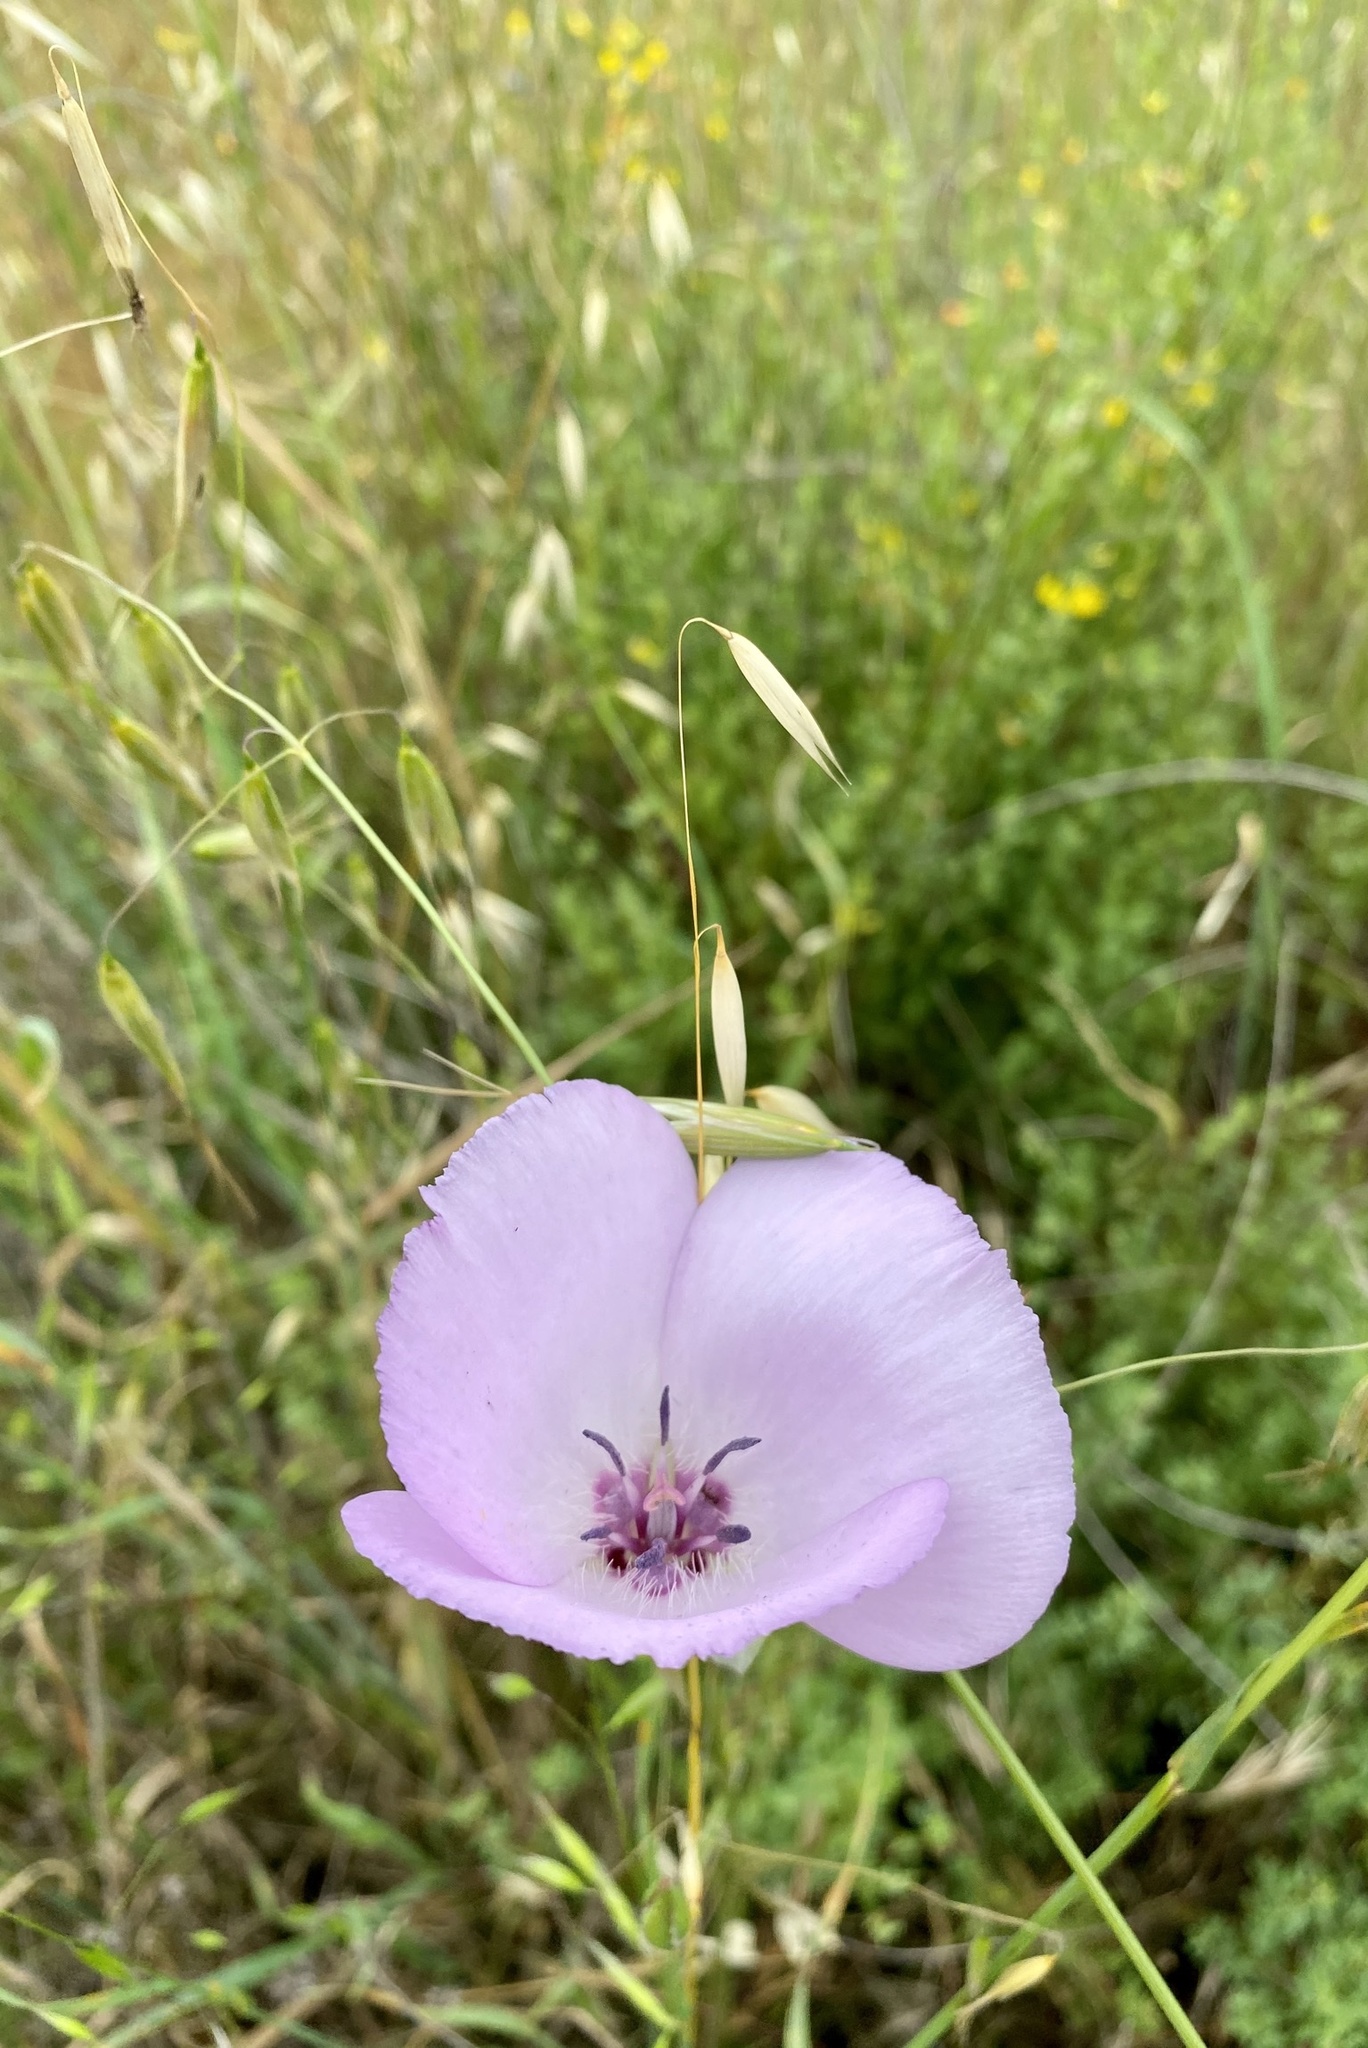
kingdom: Plantae
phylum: Tracheophyta
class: Liliopsida
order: Liliales
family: Liliaceae
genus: Calochortus
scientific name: Calochortus splendens
